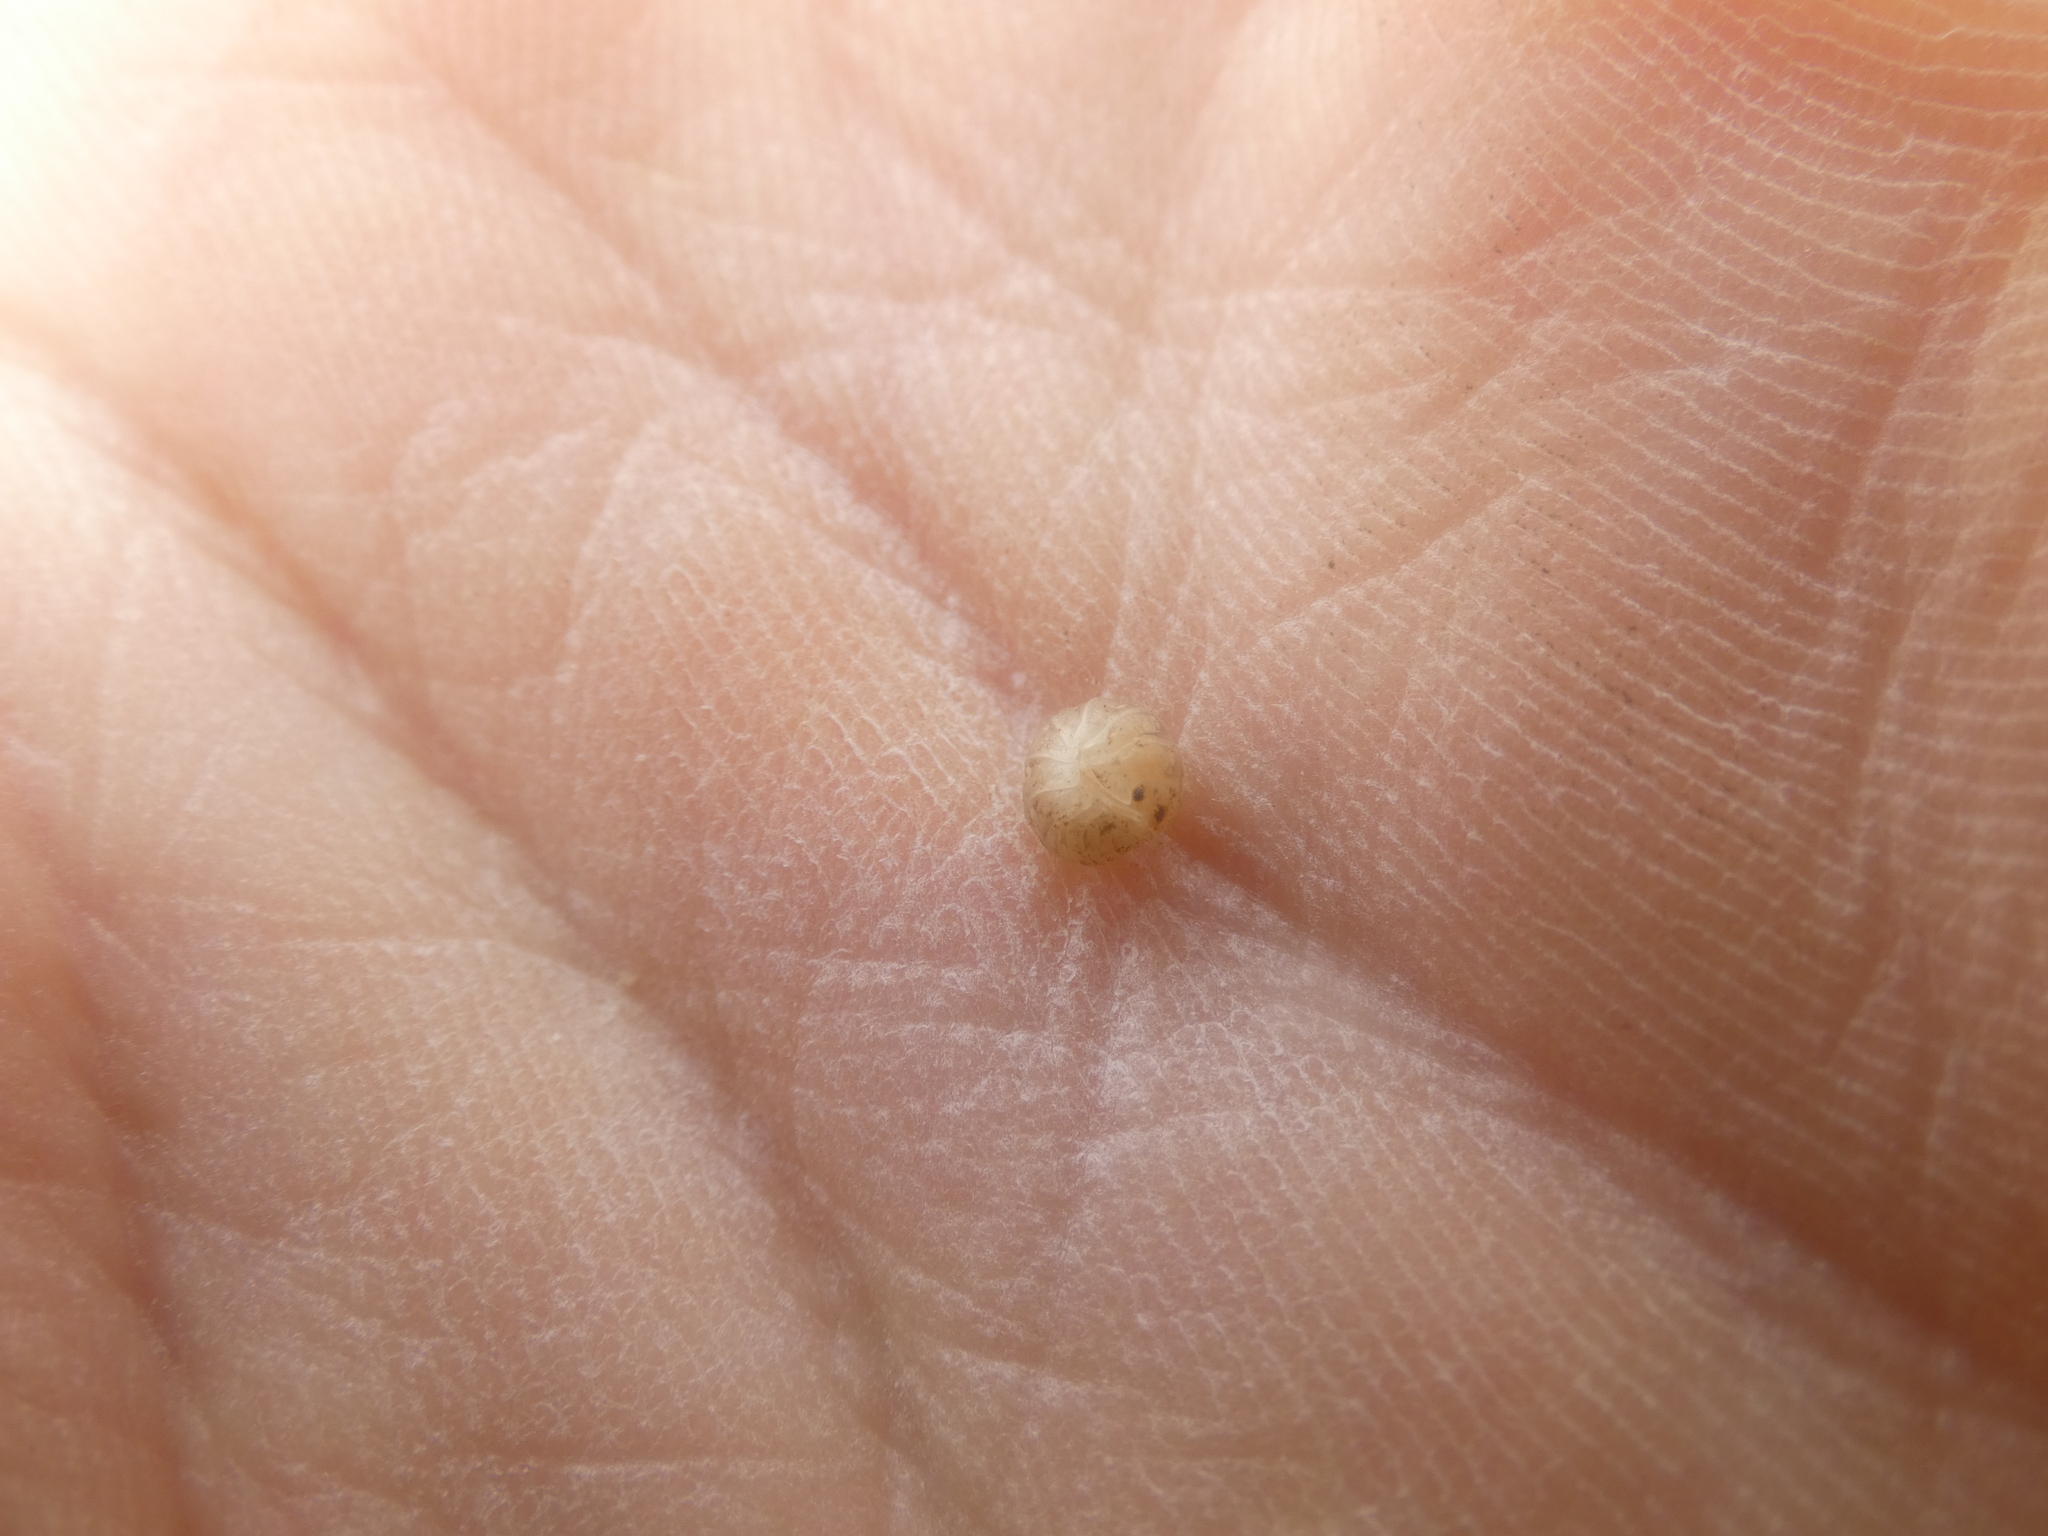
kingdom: Animalia
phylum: Arthropoda
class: Malacostraca
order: Isopoda
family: Armadillidiidae
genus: Armadillidium
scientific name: Armadillidium album
